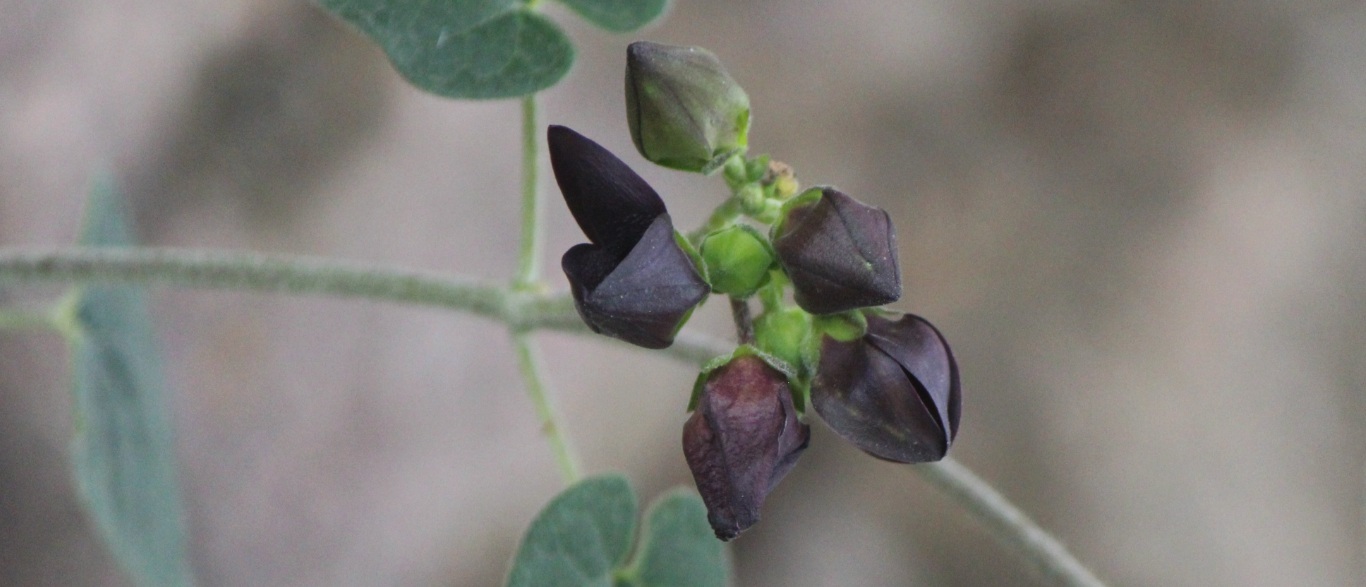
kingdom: Plantae
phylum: Tracheophyta
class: Magnoliopsida
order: Gentianales
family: Apocynaceae
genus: Matelea
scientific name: Matelea pilosa
